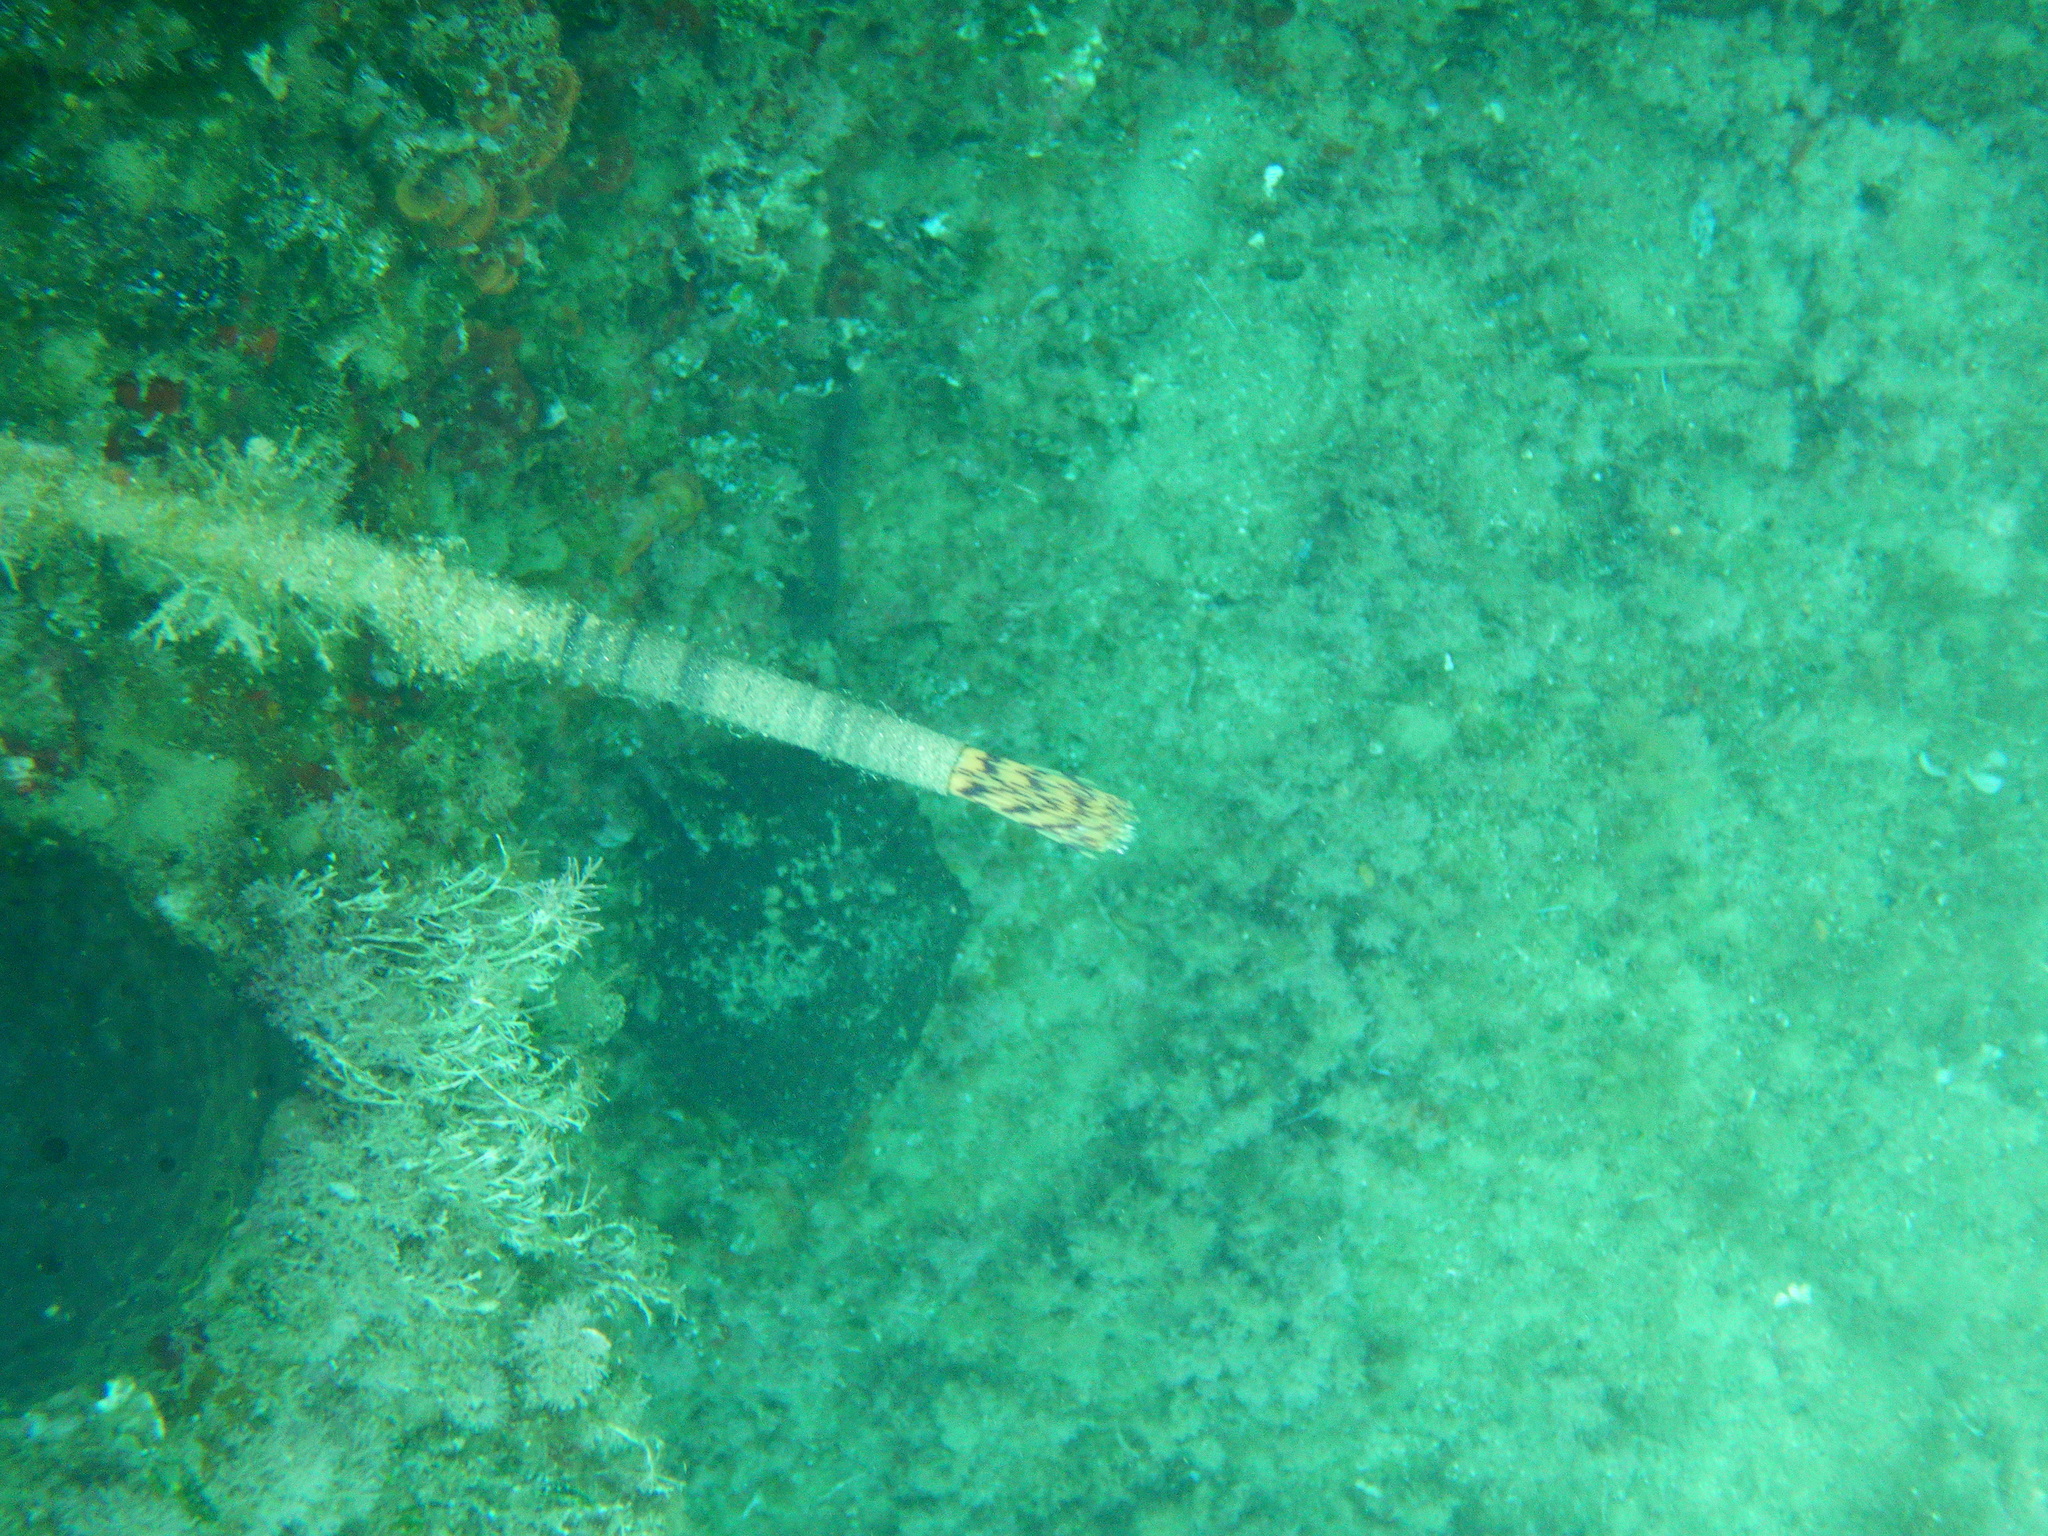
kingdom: Animalia
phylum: Annelida
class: Polychaeta
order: Sabellida
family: Sabellidae
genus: Sabella
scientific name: Sabella spallanzanii
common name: Feather duster worm
